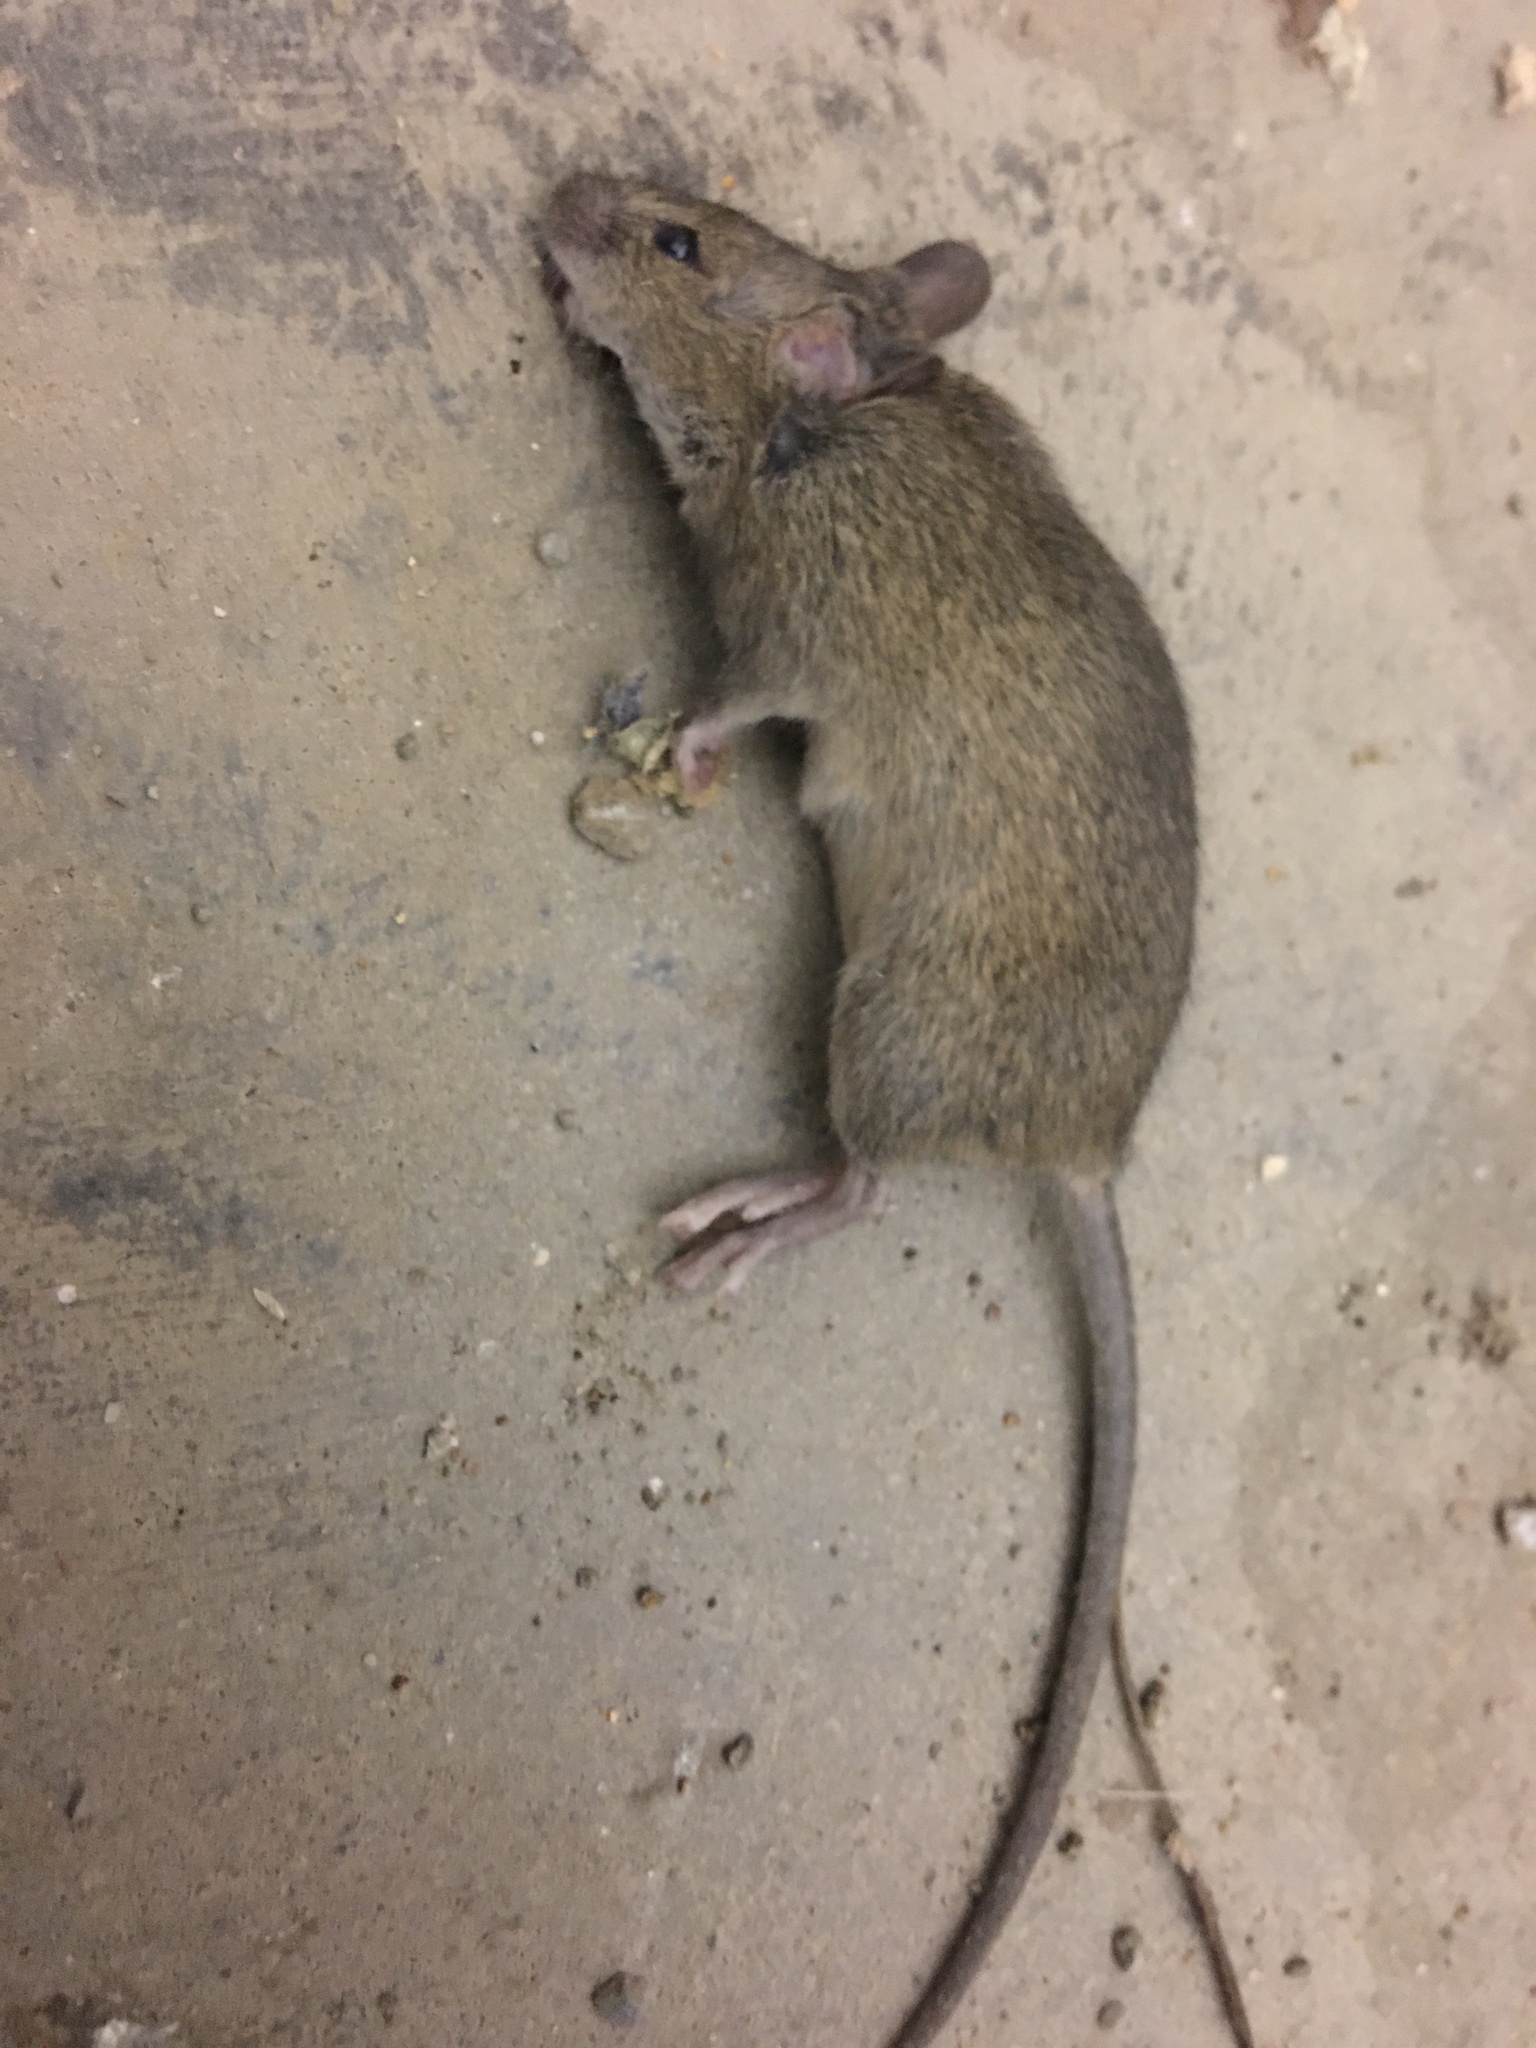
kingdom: Animalia
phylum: Chordata
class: Mammalia
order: Rodentia
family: Muridae
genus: Mus
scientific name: Mus musculus
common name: House mouse
